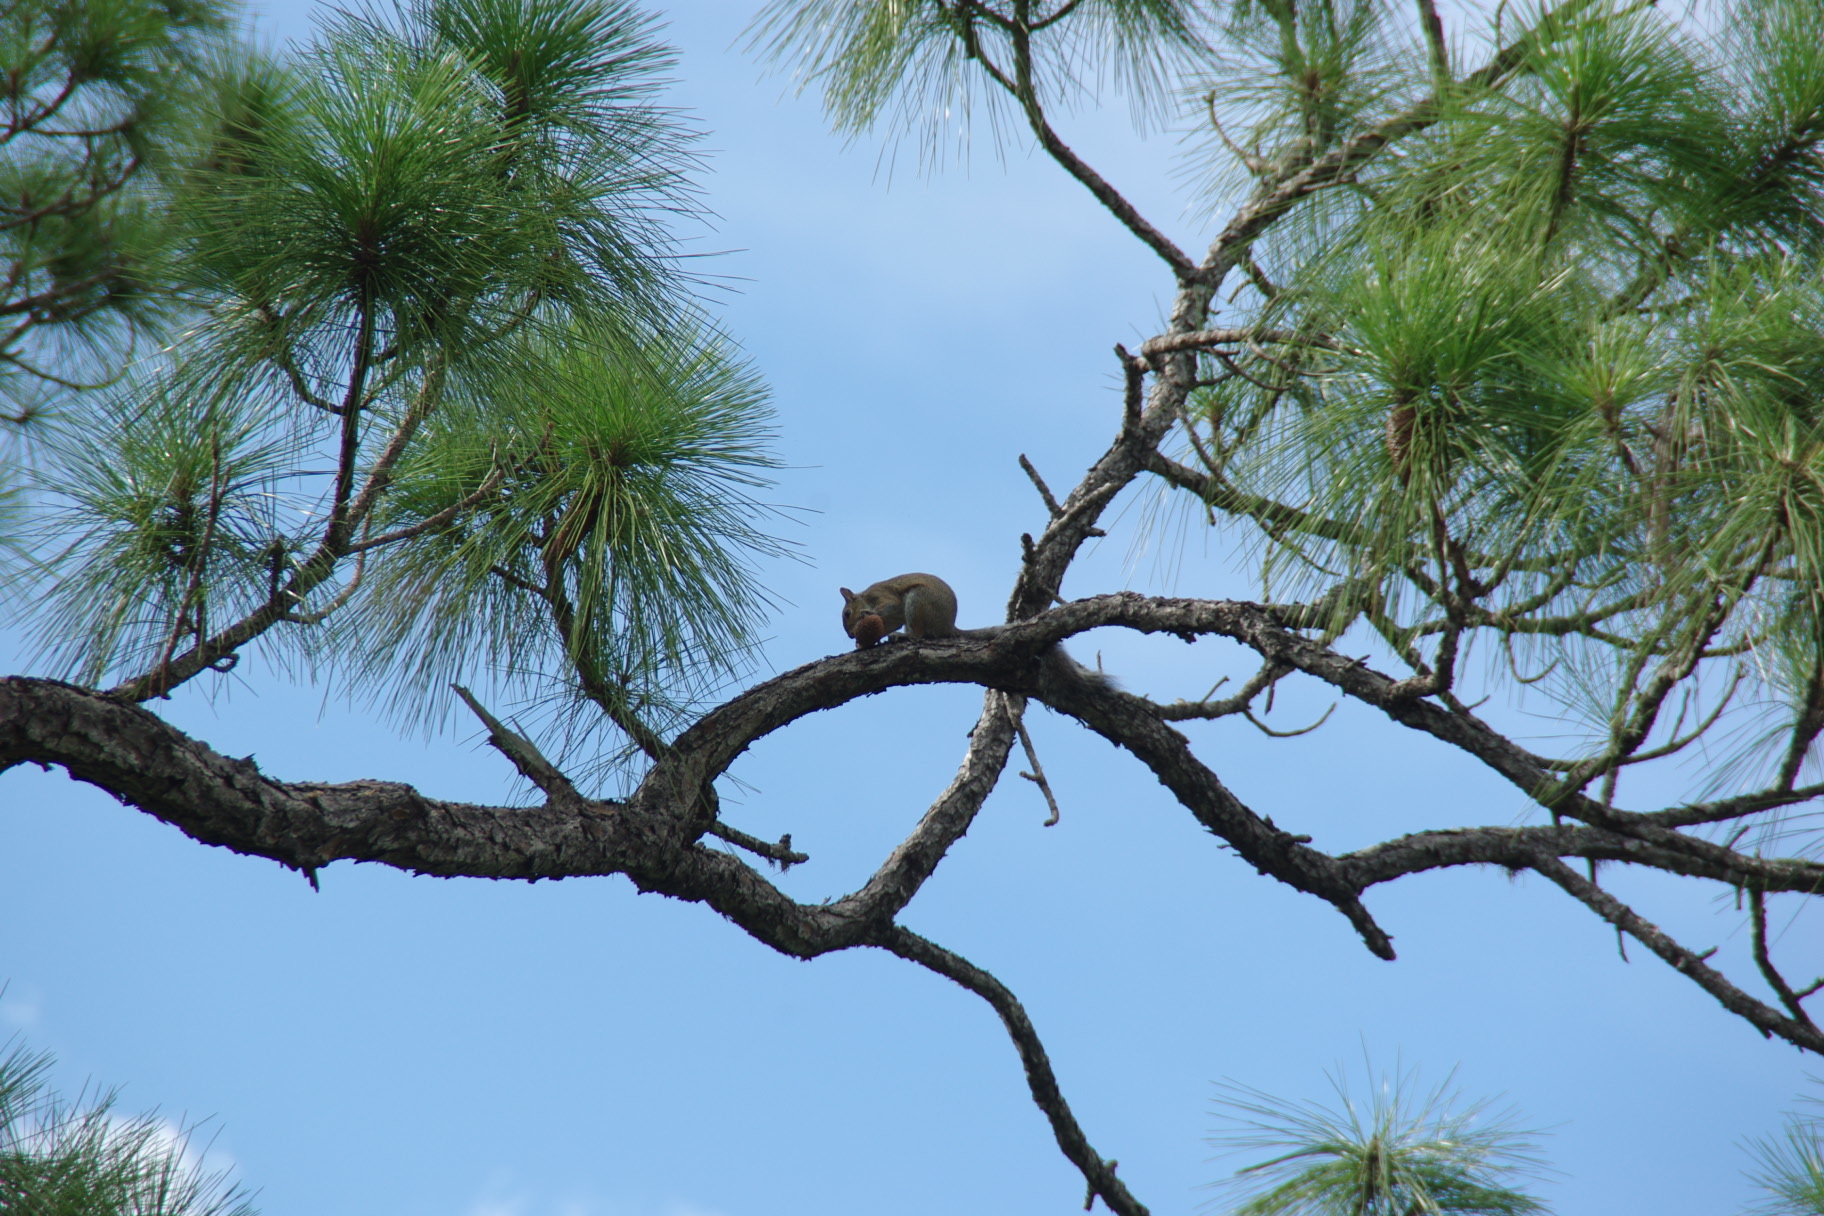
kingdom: Animalia
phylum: Chordata
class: Mammalia
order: Rodentia
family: Sciuridae
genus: Sciurus
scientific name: Sciurus carolinensis
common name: Eastern gray squirrel
